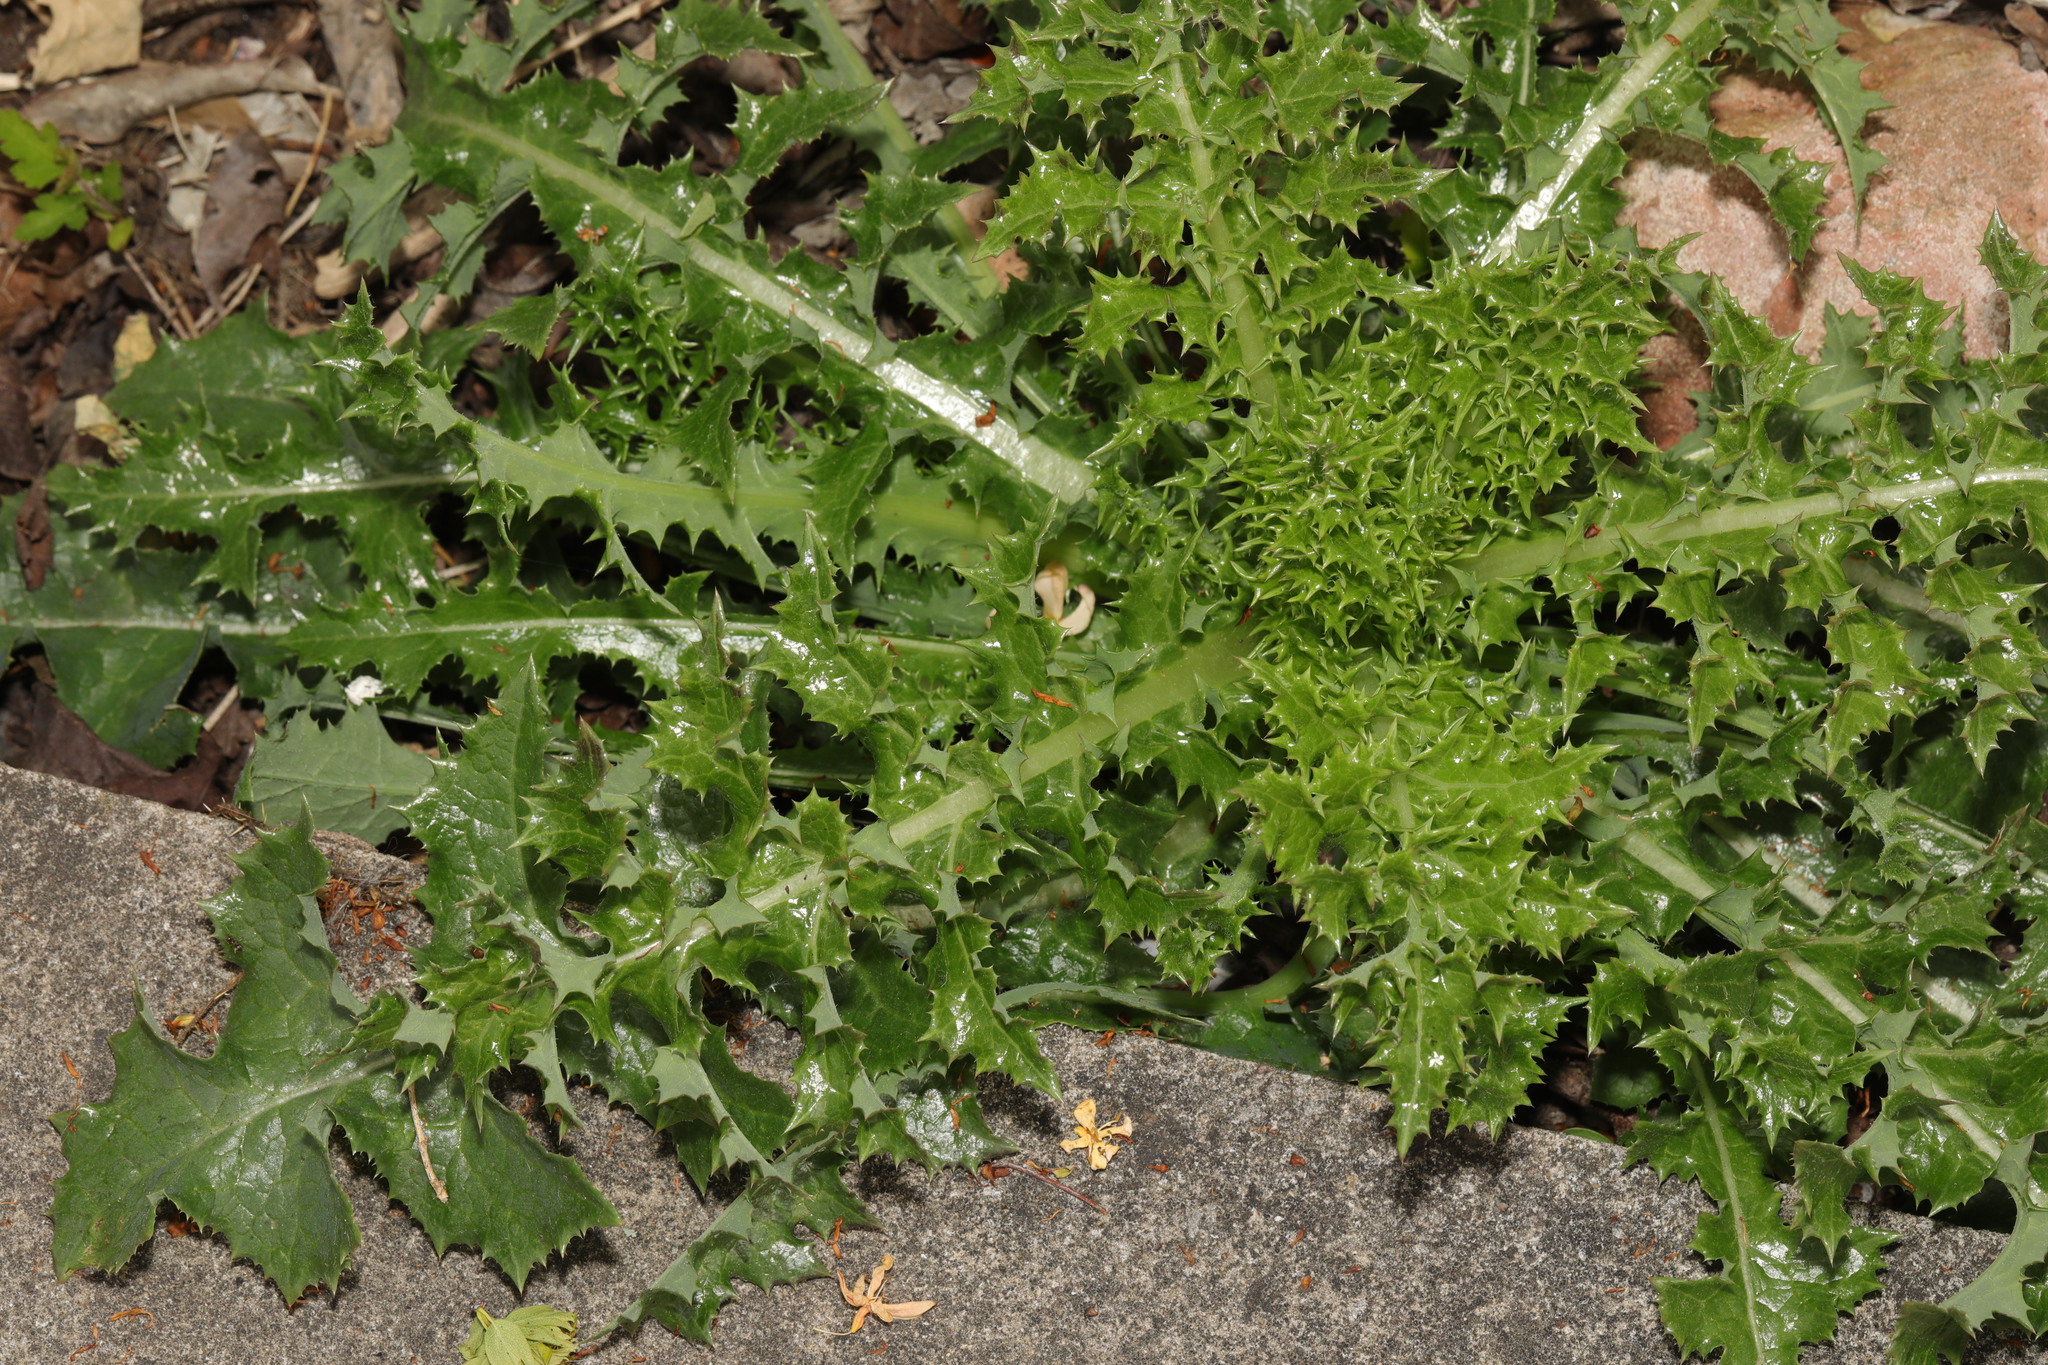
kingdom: Plantae
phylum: Tracheophyta
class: Magnoliopsida
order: Asterales
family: Asteraceae
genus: Sonchus
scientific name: Sonchus asper
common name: Prickly sow-thistle
